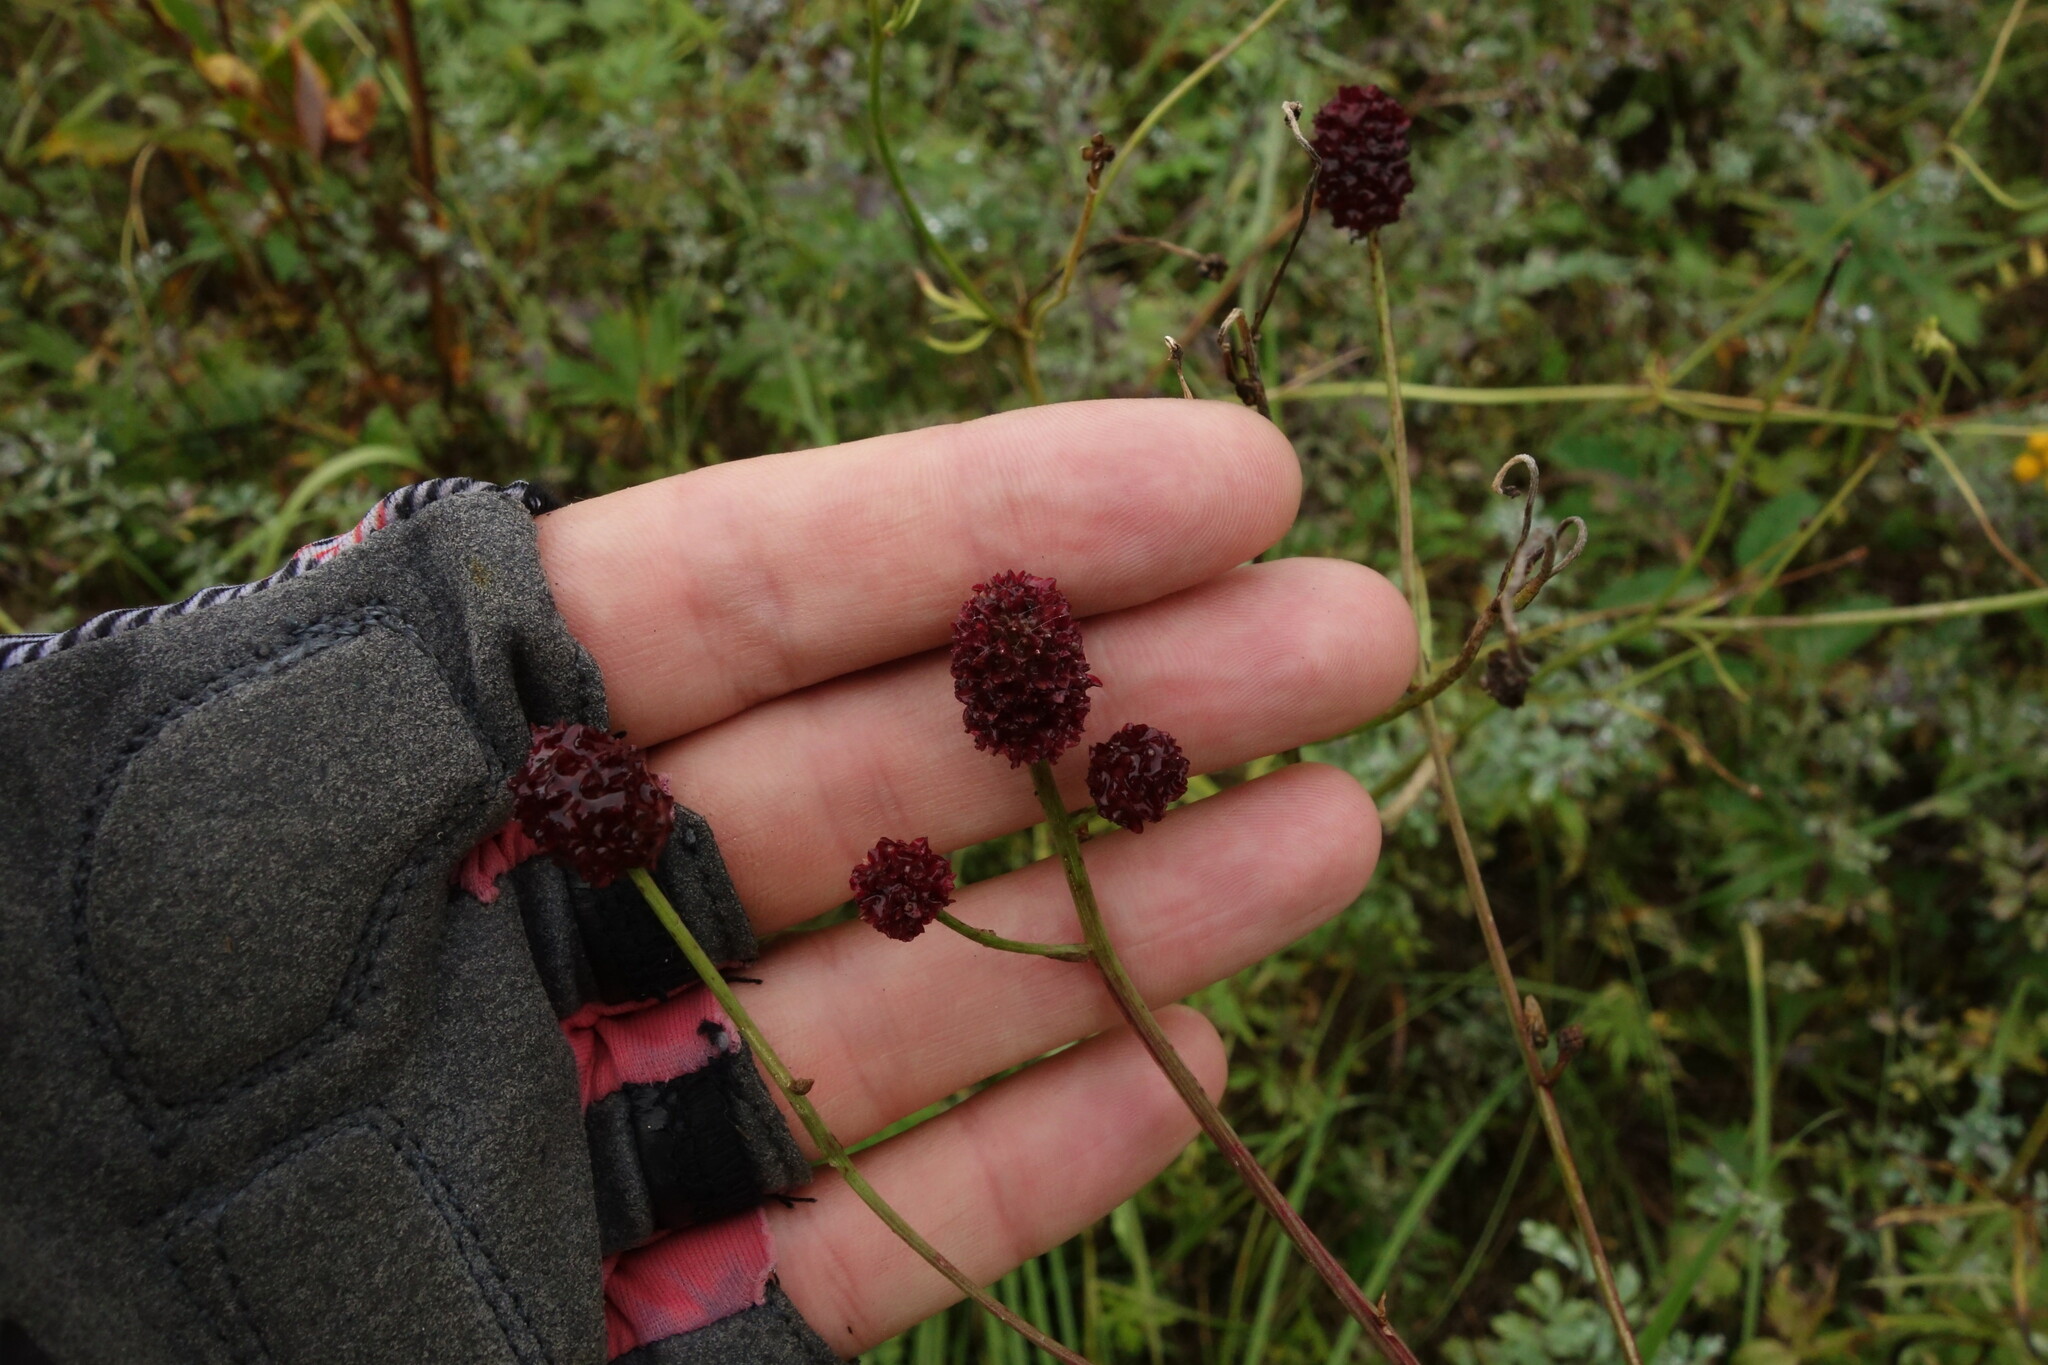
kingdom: Plantae
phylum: Tracheophyta
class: Magnoliopsida
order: Rosales
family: Rosaceae
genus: Sanguisorba
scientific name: Sanguisorba officinalis
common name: Great burnet
